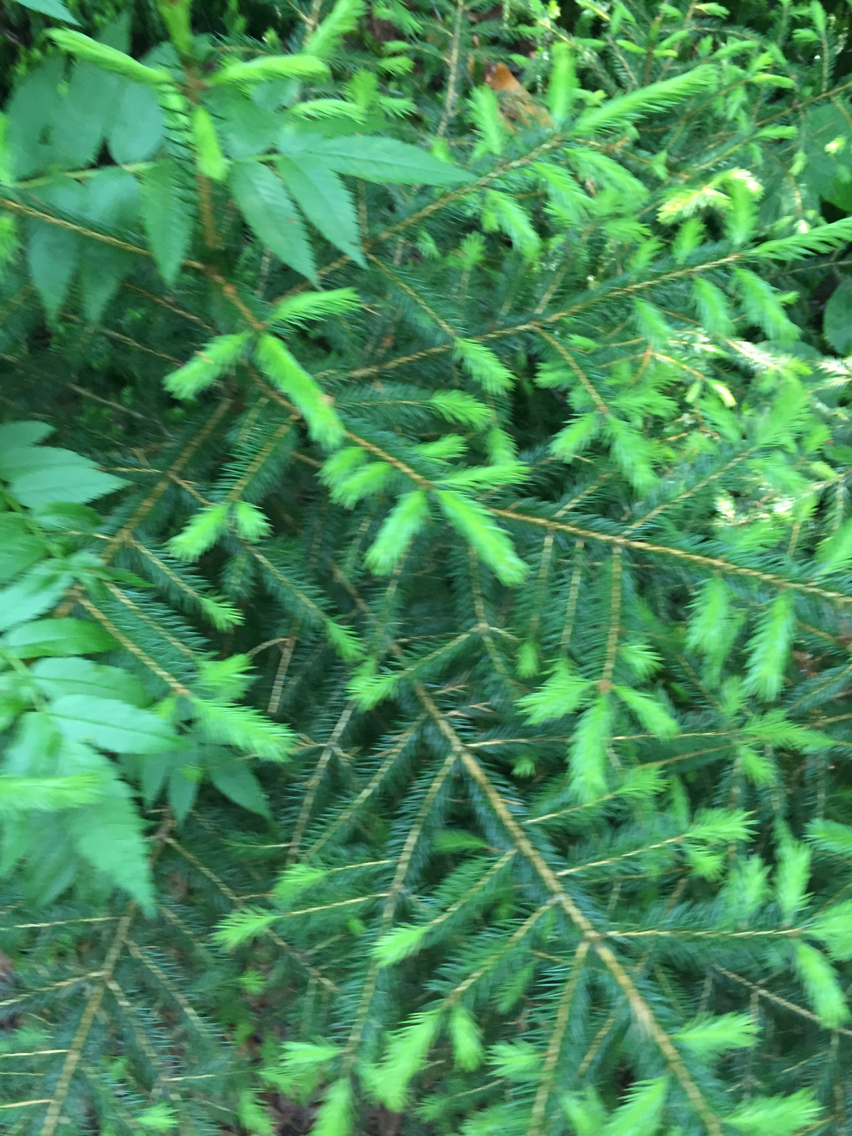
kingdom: Plantae
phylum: Tracheophyta
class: Pinopsida
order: Pinales
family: Pinaceae
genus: Picea
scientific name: Picea rubens
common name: Red spruce
